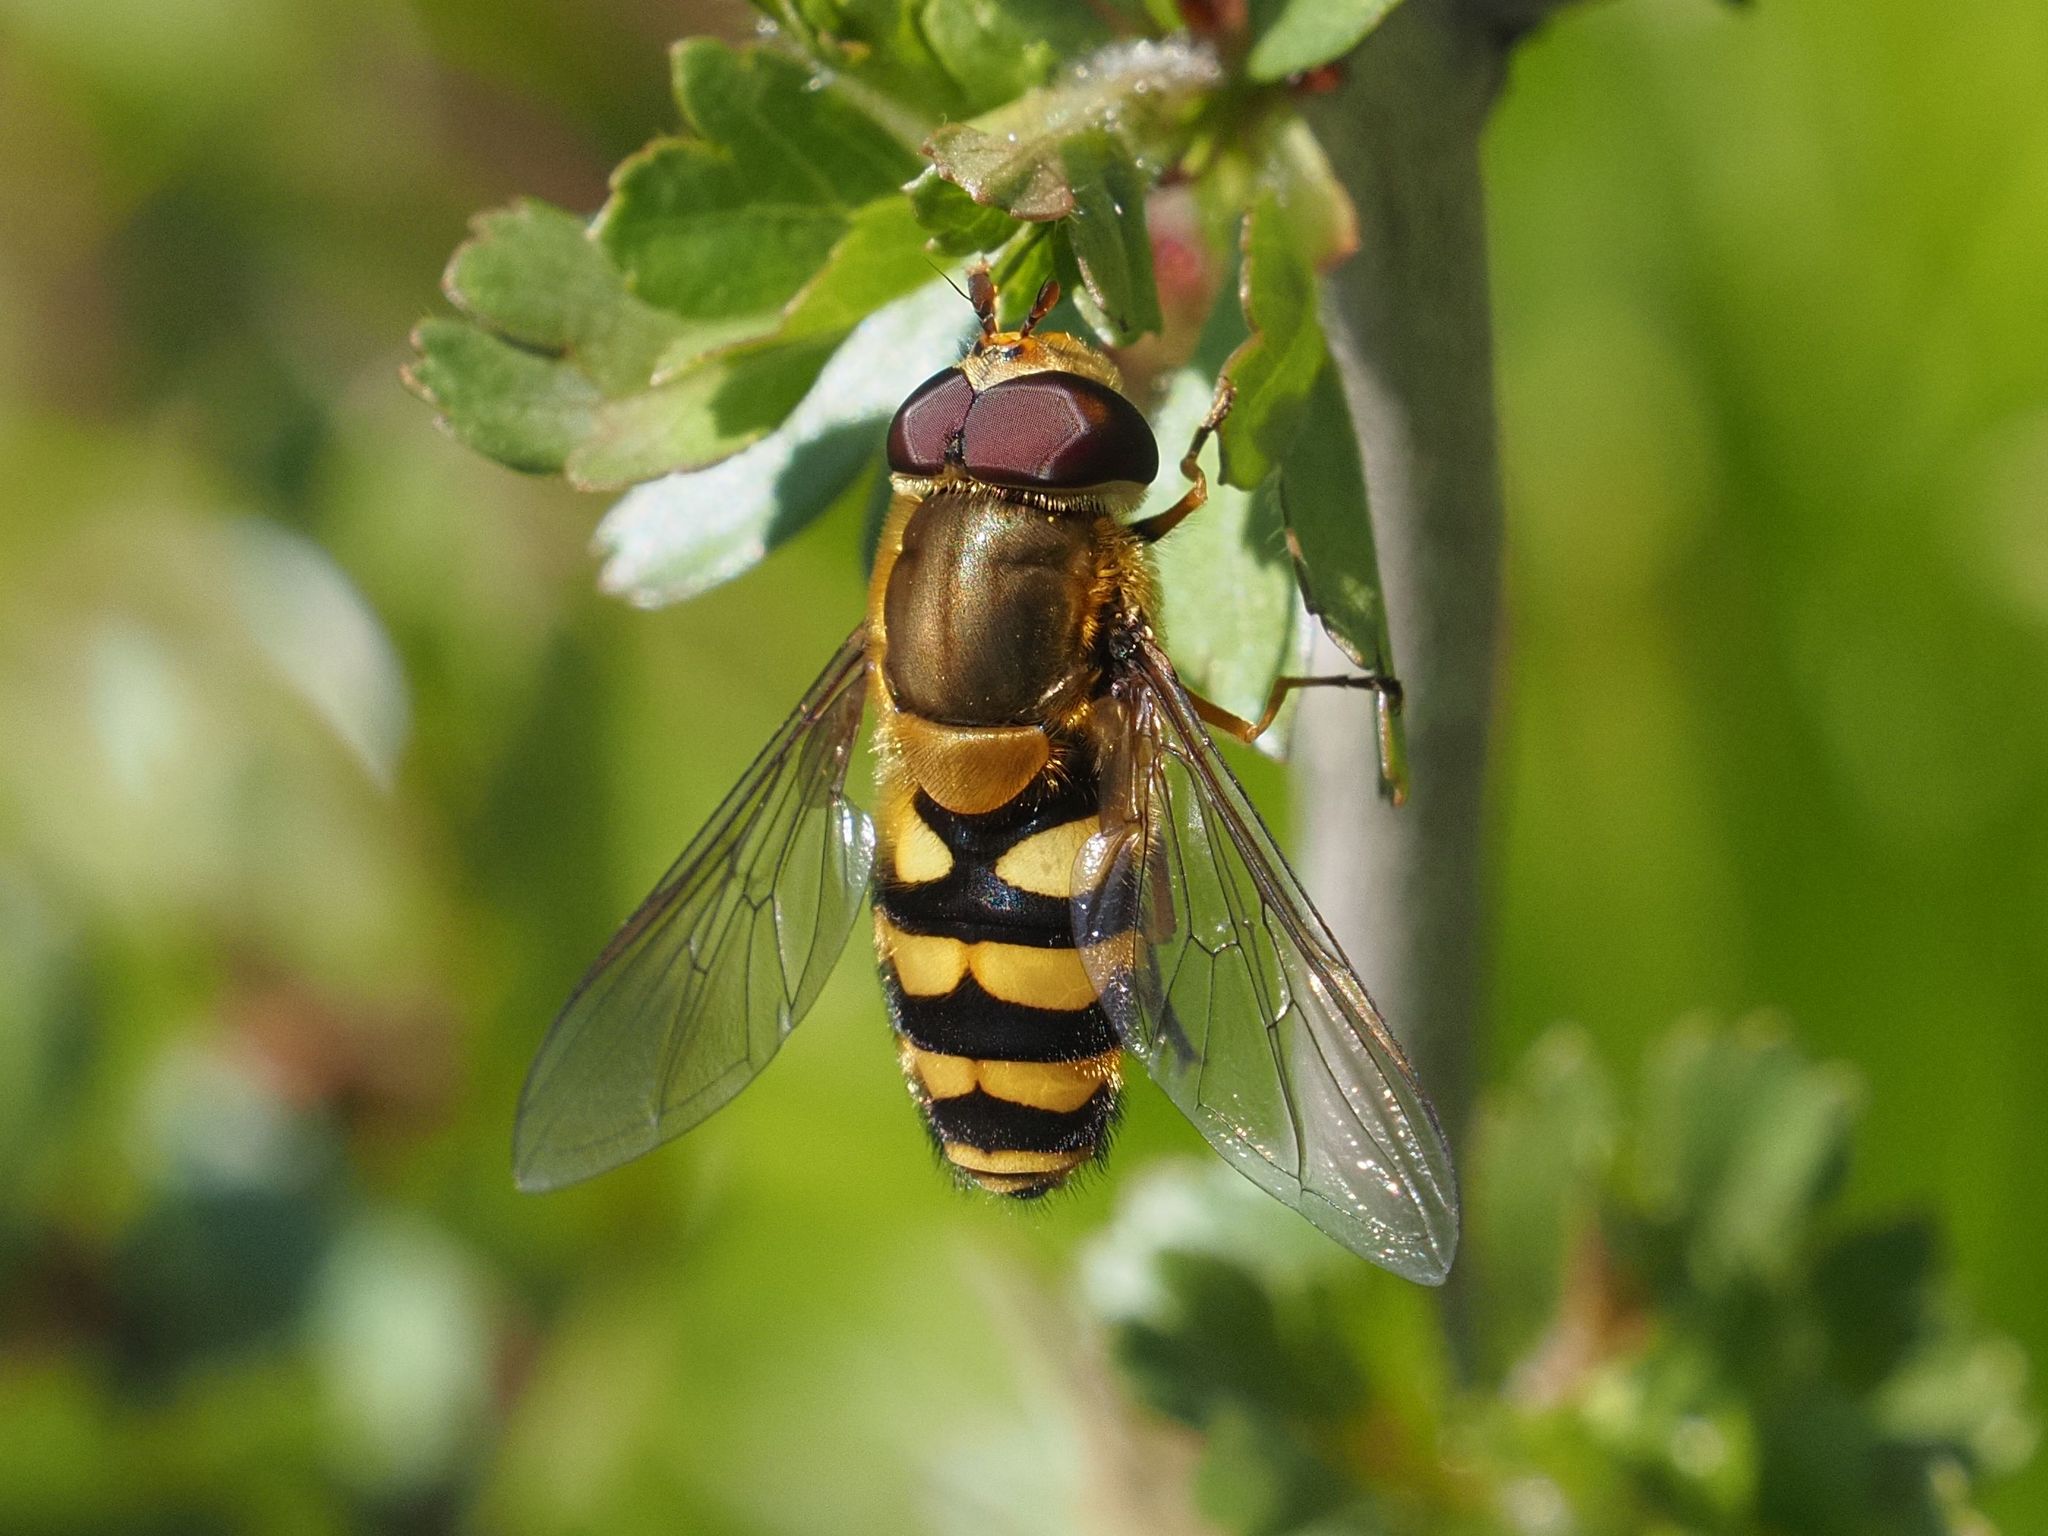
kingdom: Animalia
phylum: Arthropoda
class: Insecta
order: Diptera
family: Syrphidae
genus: Syrphus
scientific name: Syrphus
